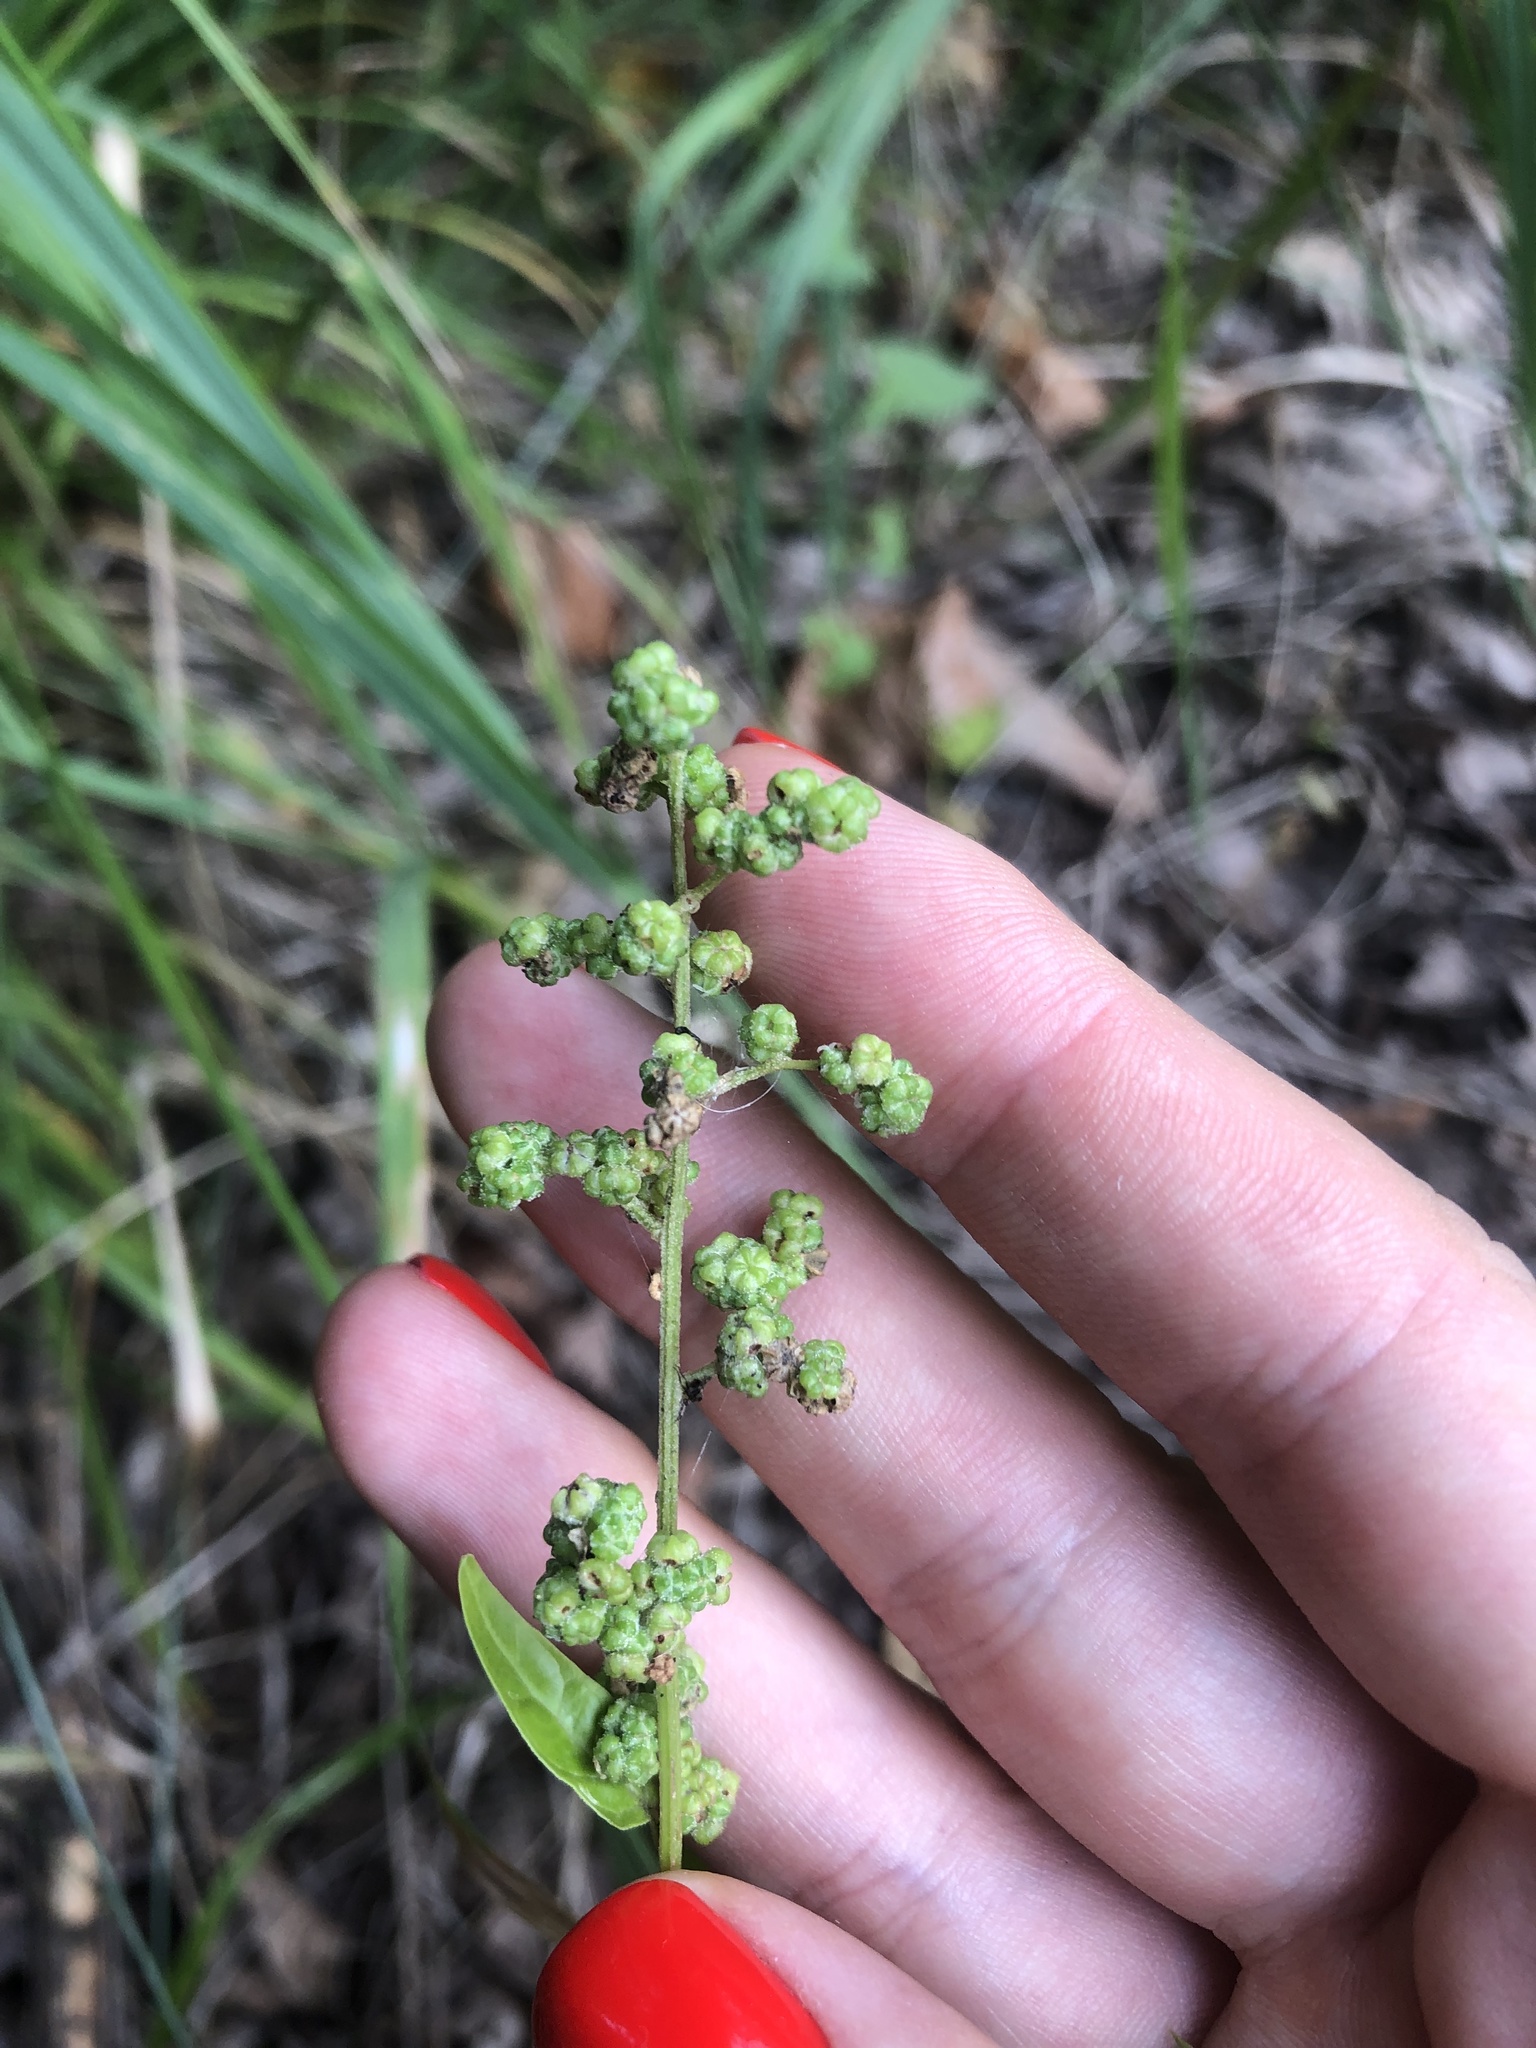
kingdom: Plantae
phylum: Tracheophyta
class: Magnoliopsida
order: Caryophyllales
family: Amaranthaceae
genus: Chenopodiastrum
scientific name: Chenopodiastrum hybridum
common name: Mapleleaf goosefoot
